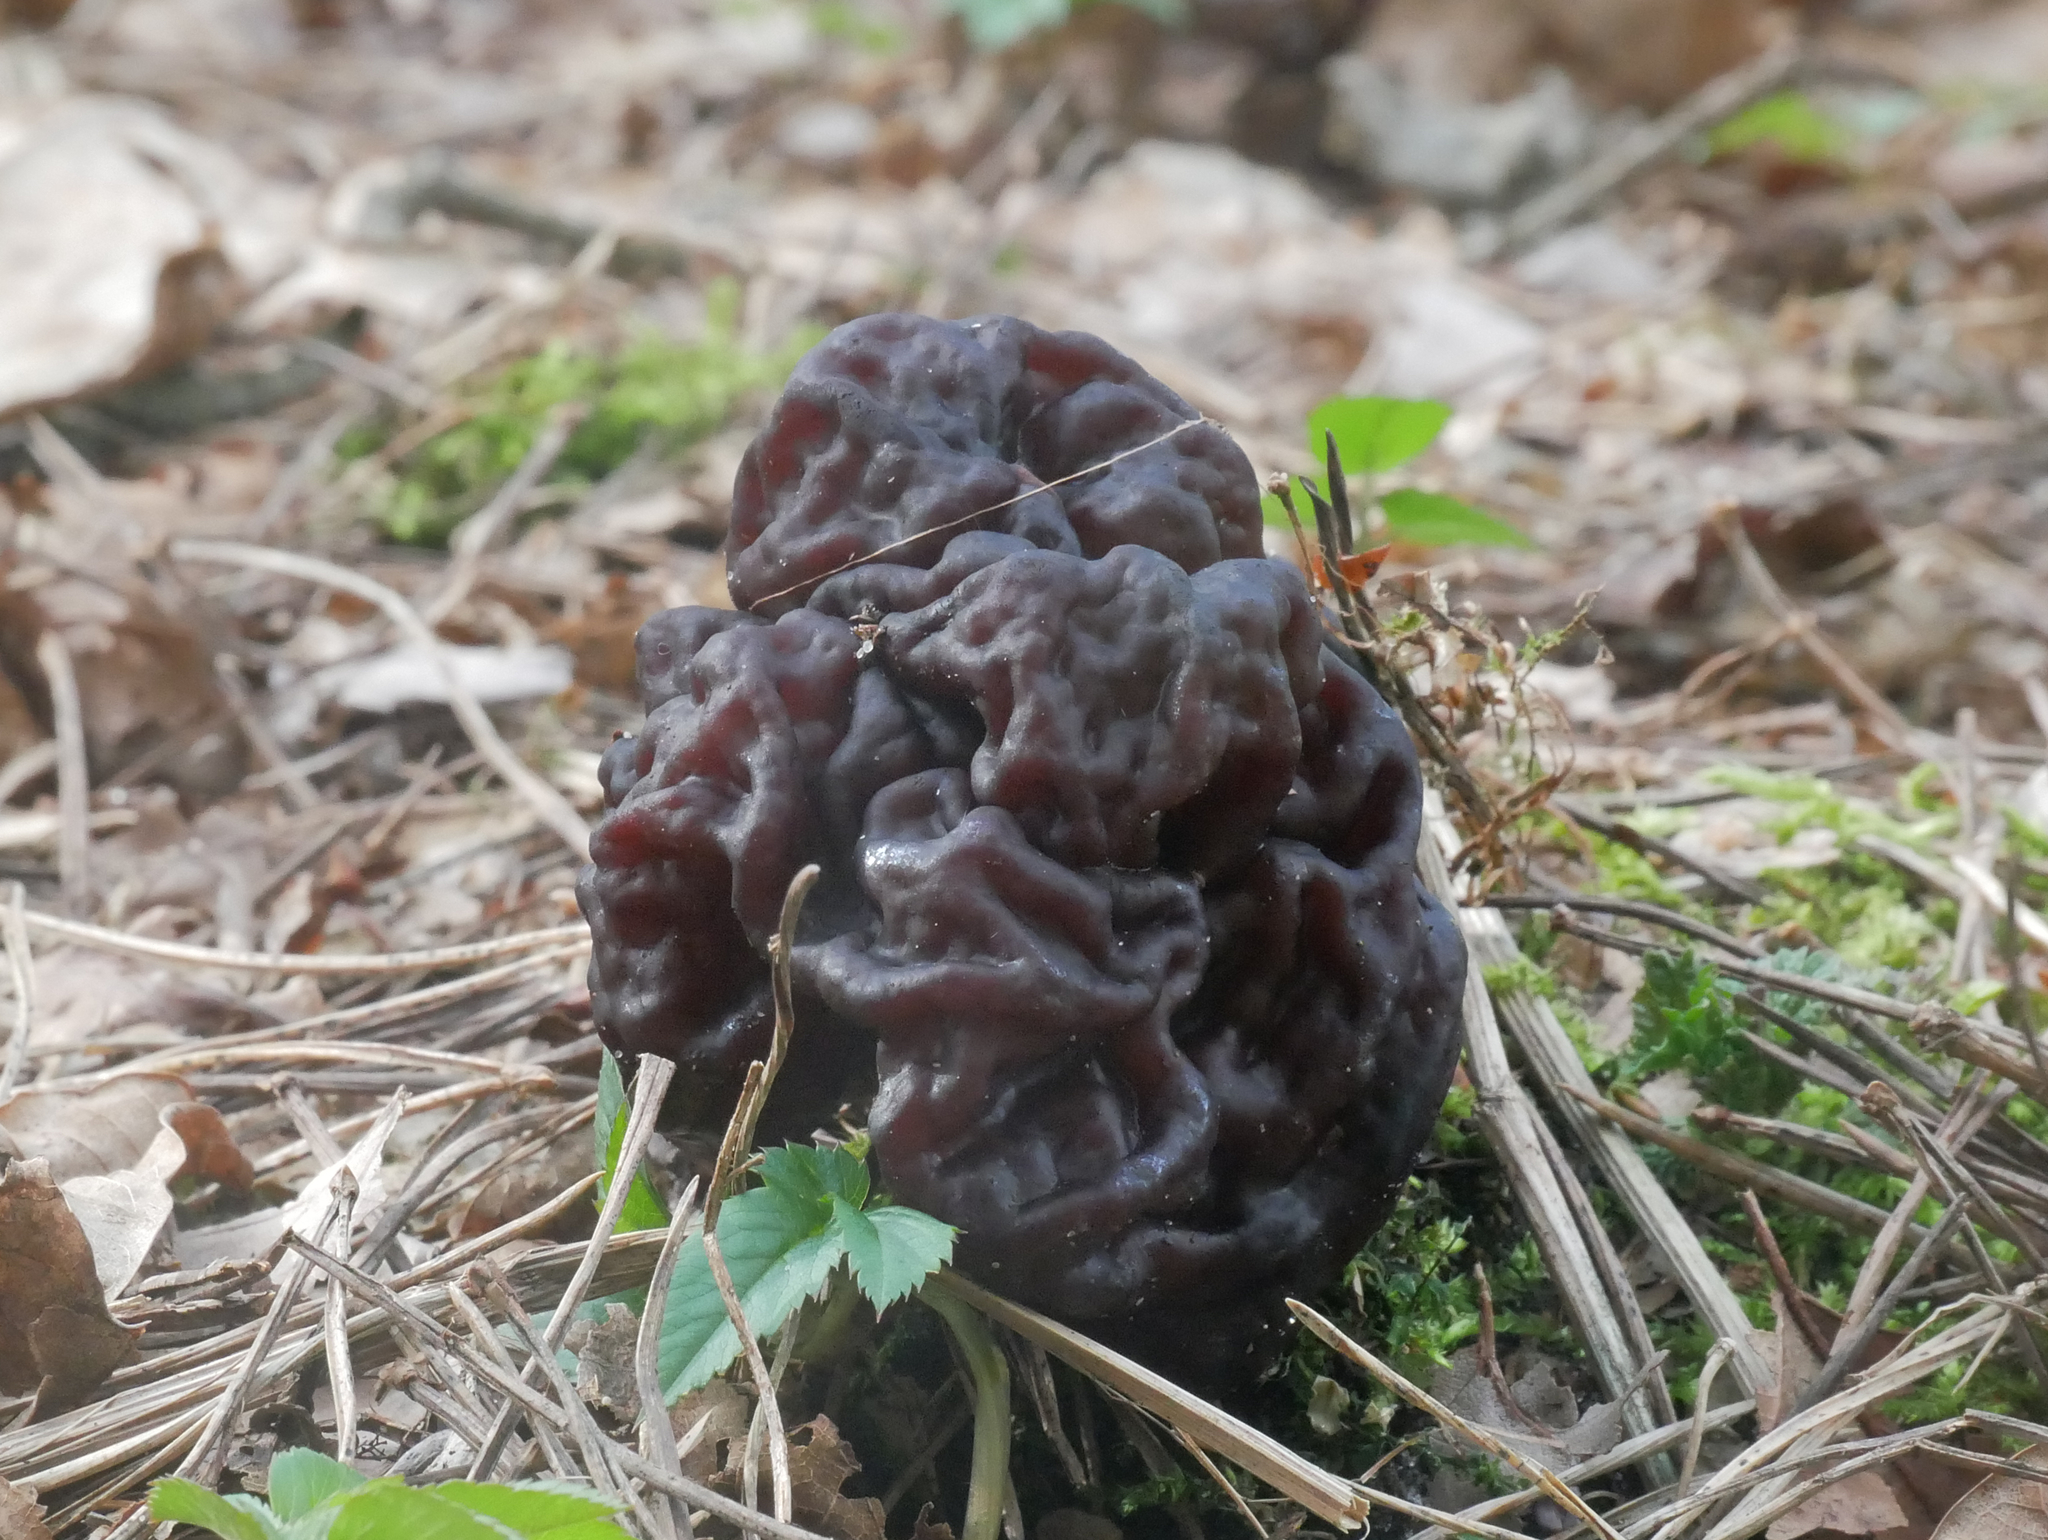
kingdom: Fungi
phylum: Ascomycota
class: Pezizomycetes
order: Pezizales
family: Discinaceae
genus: Gyromitra
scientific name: Gyromitra esculenta
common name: False morel
